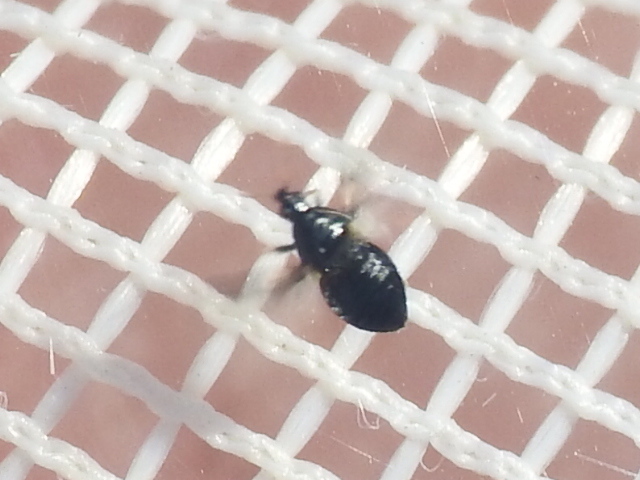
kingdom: Animalia
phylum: Arthropoda
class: Insecta
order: Hemiptera
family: Anthocoridae
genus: Orius
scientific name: Orius tristicolor
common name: Minute pirate bug
